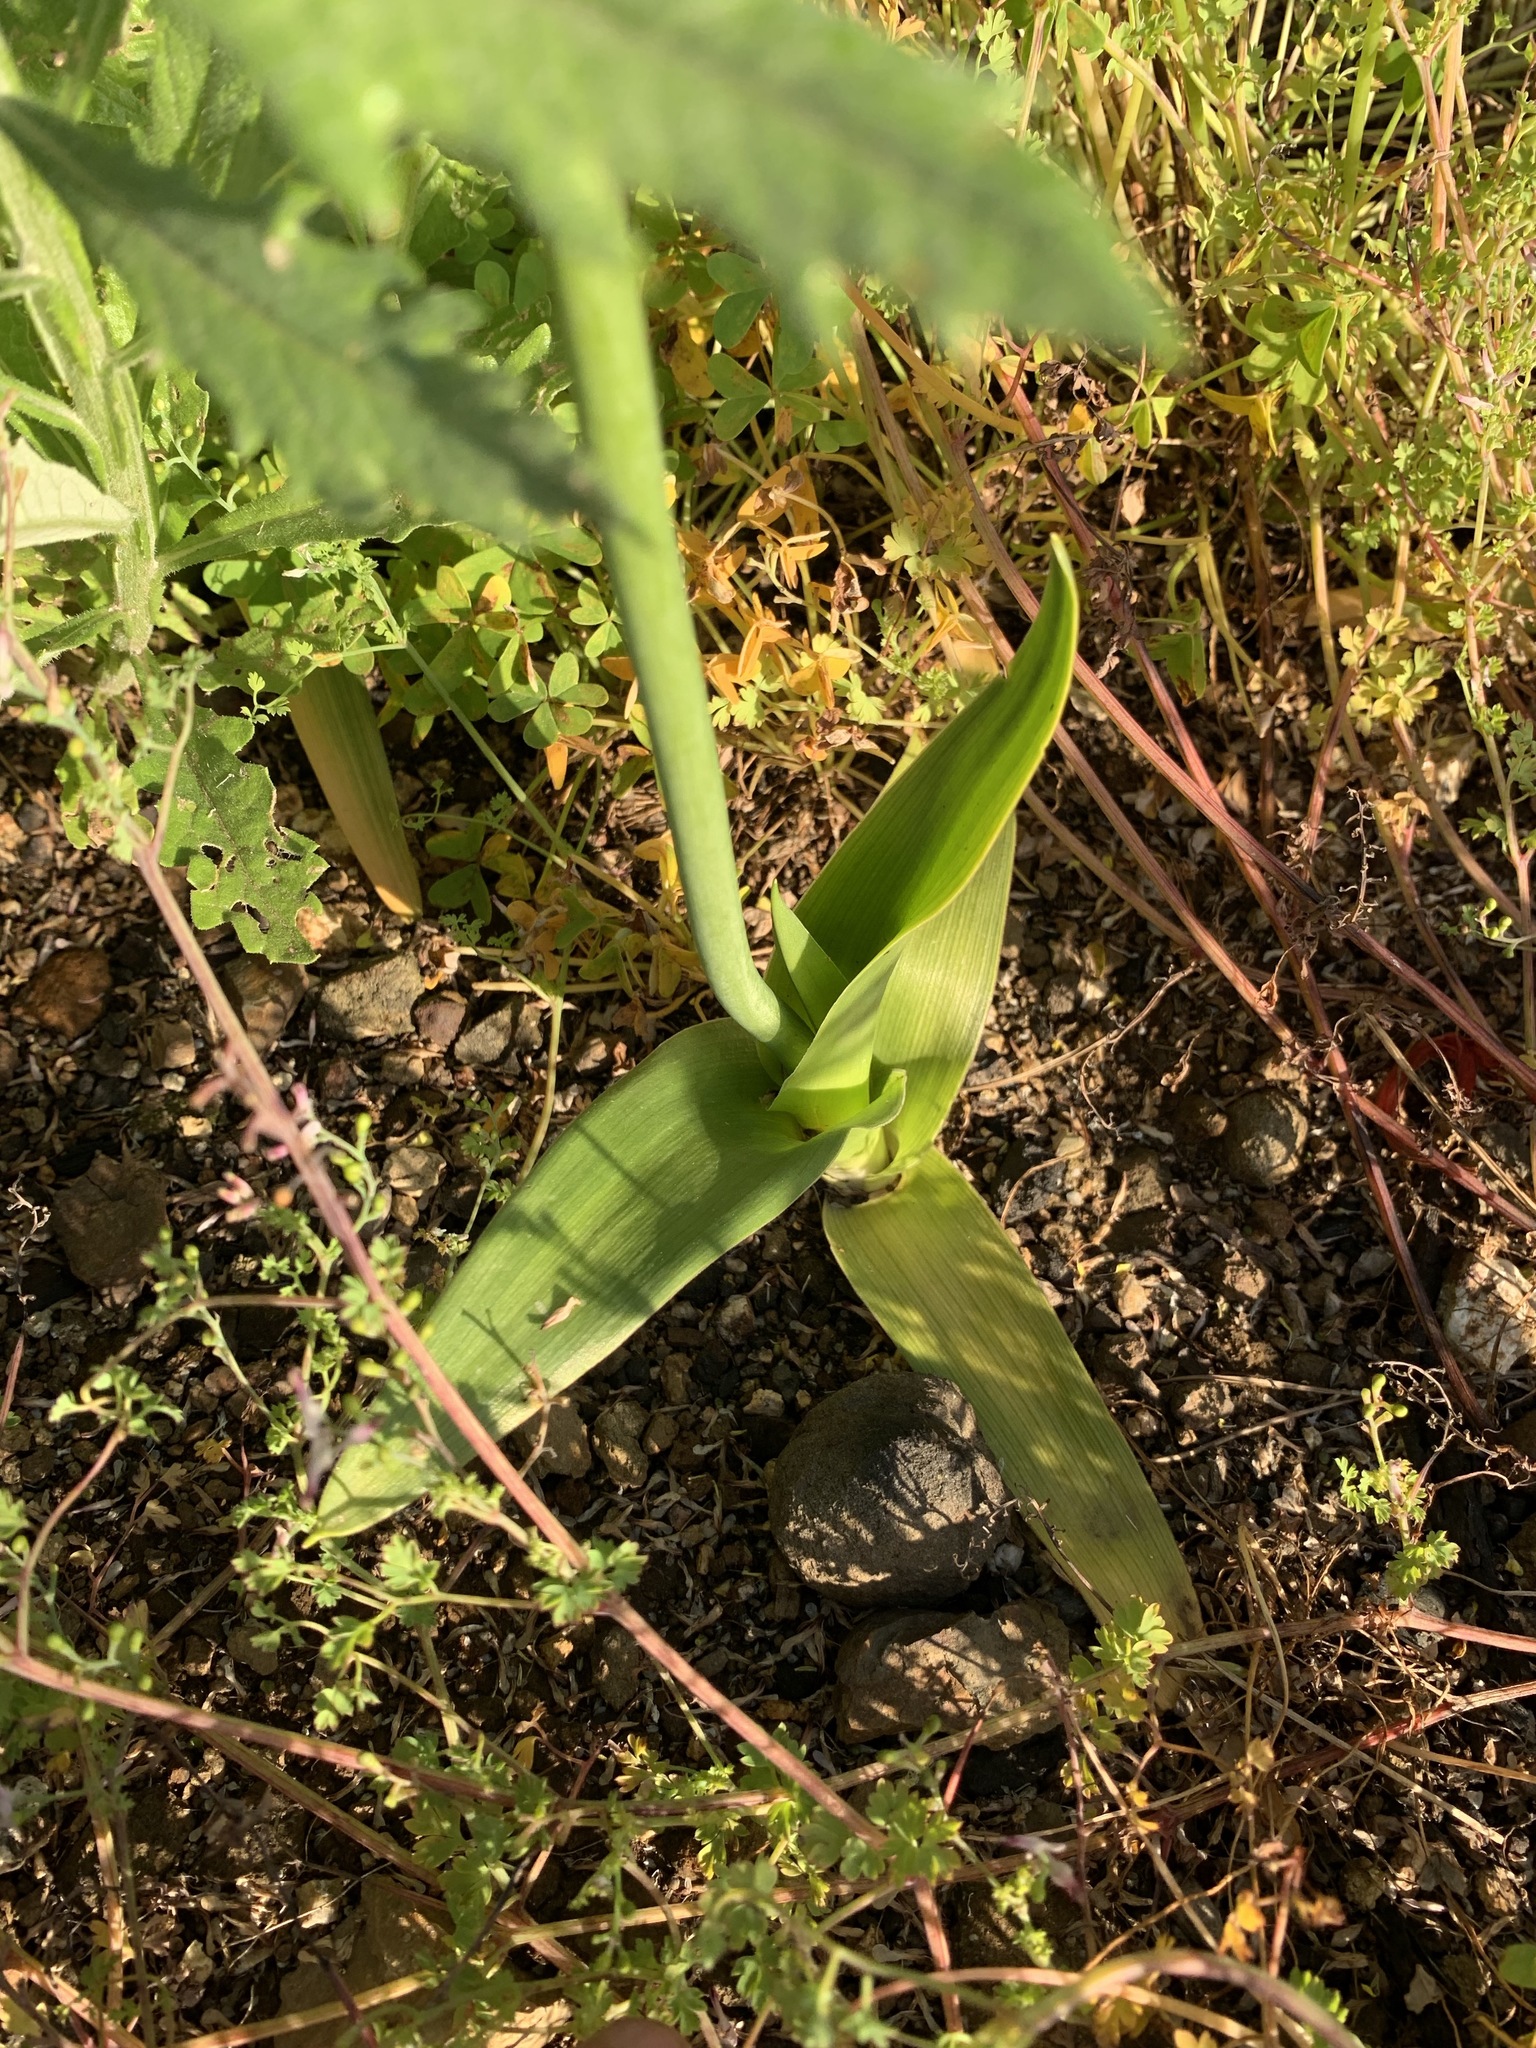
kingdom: Plantae
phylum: Tracheophyta
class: Liliopsida
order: Asparagales
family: Asparagaceae
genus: Ornithogalum
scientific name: Ornithogalum thyrsoides
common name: Chincherinchee
